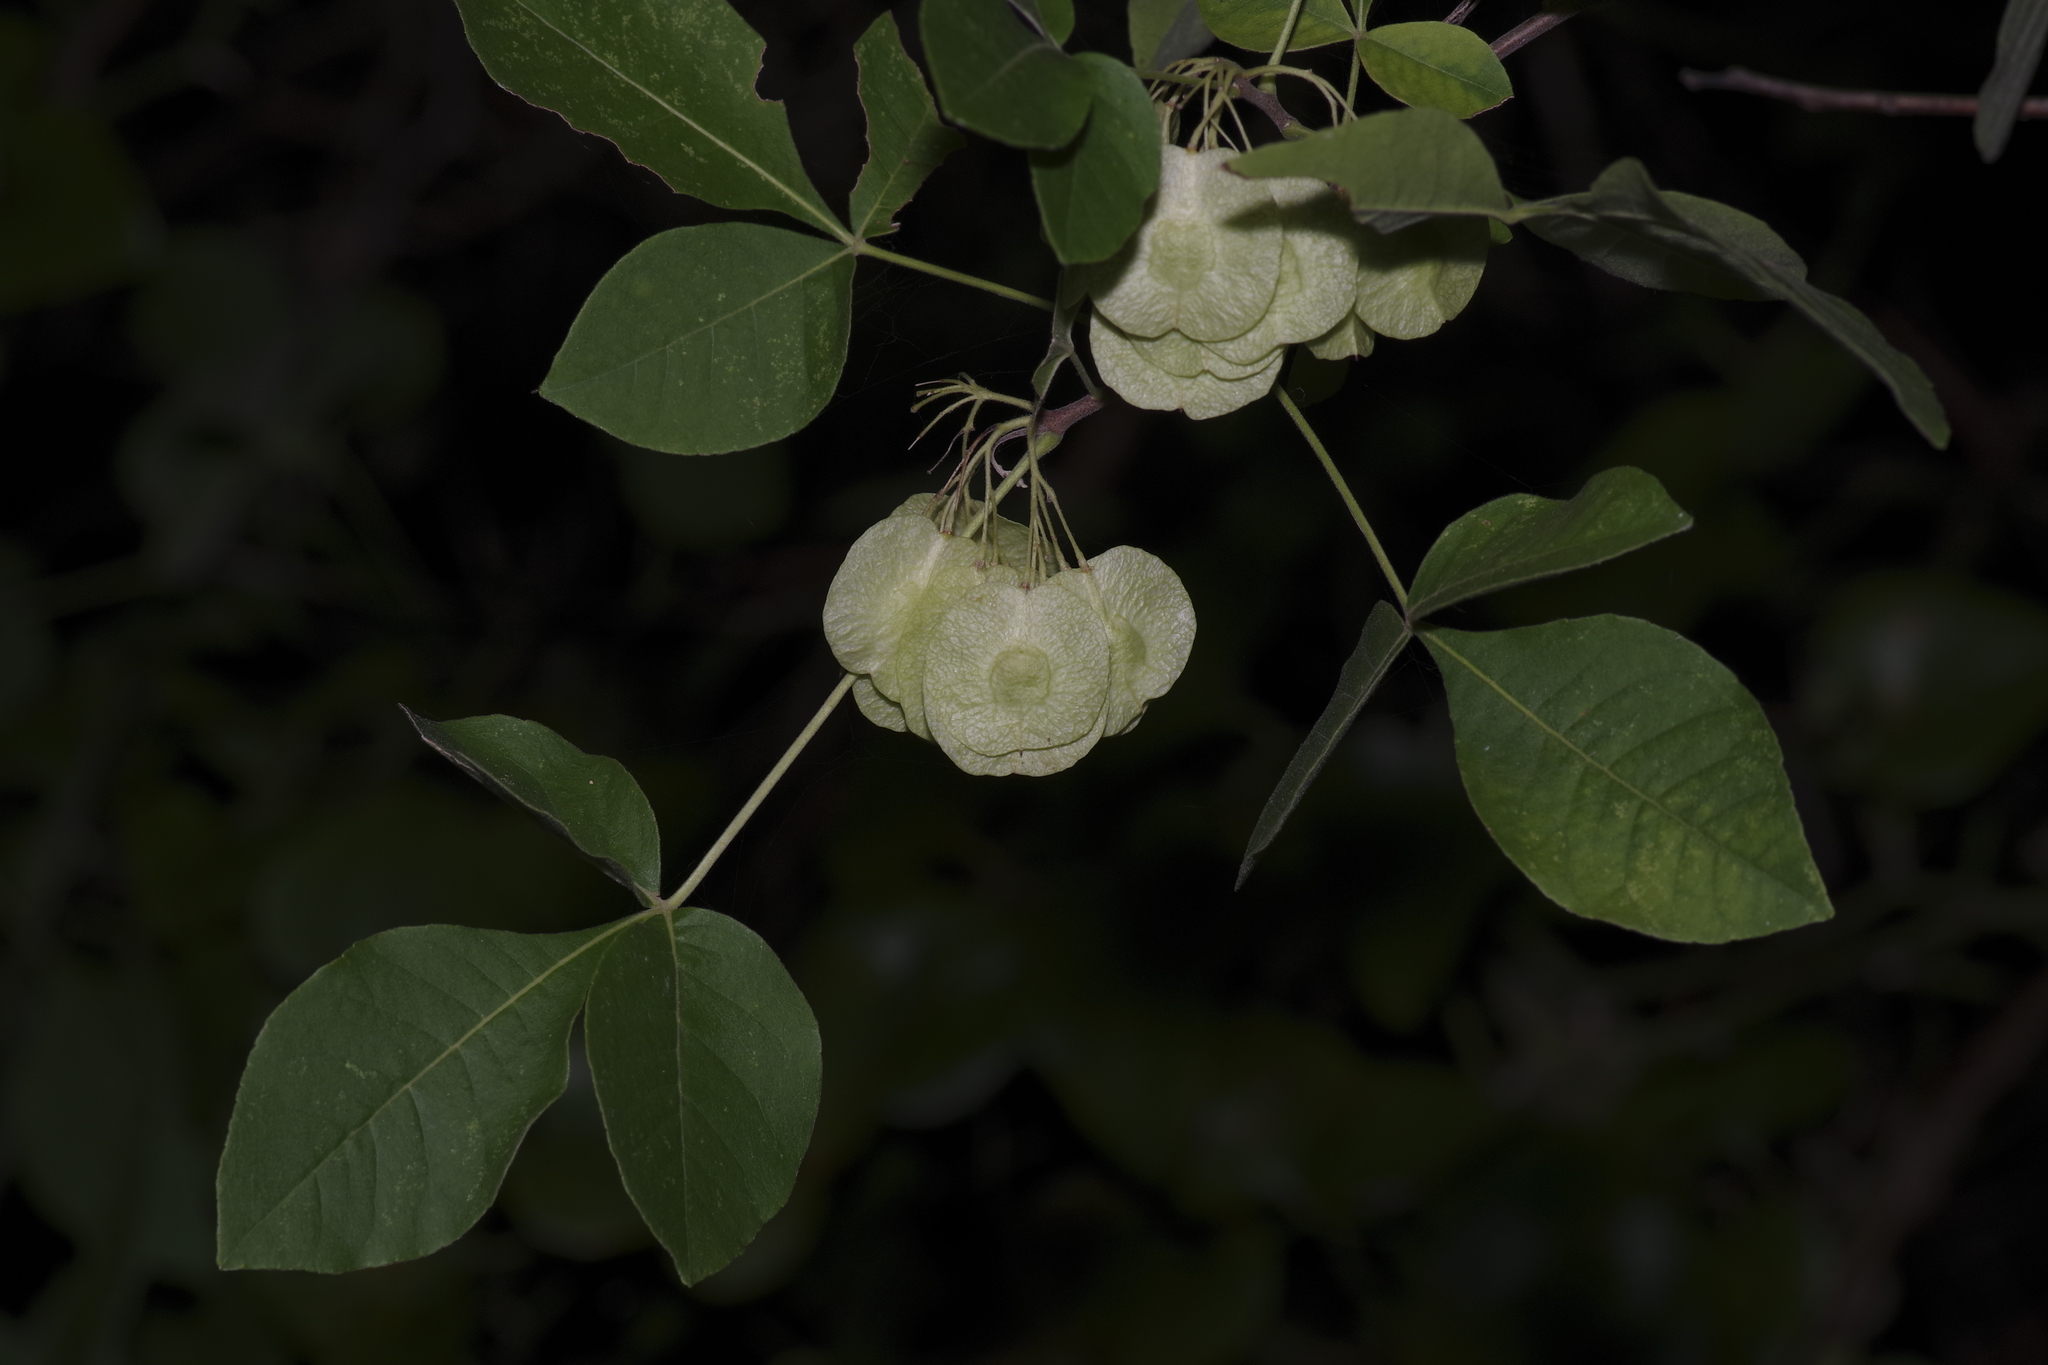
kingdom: Plantae
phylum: Tracheophyta
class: Magnoliopsida
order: Sapindales
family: Rutaceae
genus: Ptelea
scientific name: Ptelea trifoliata
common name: Common hop-tree
